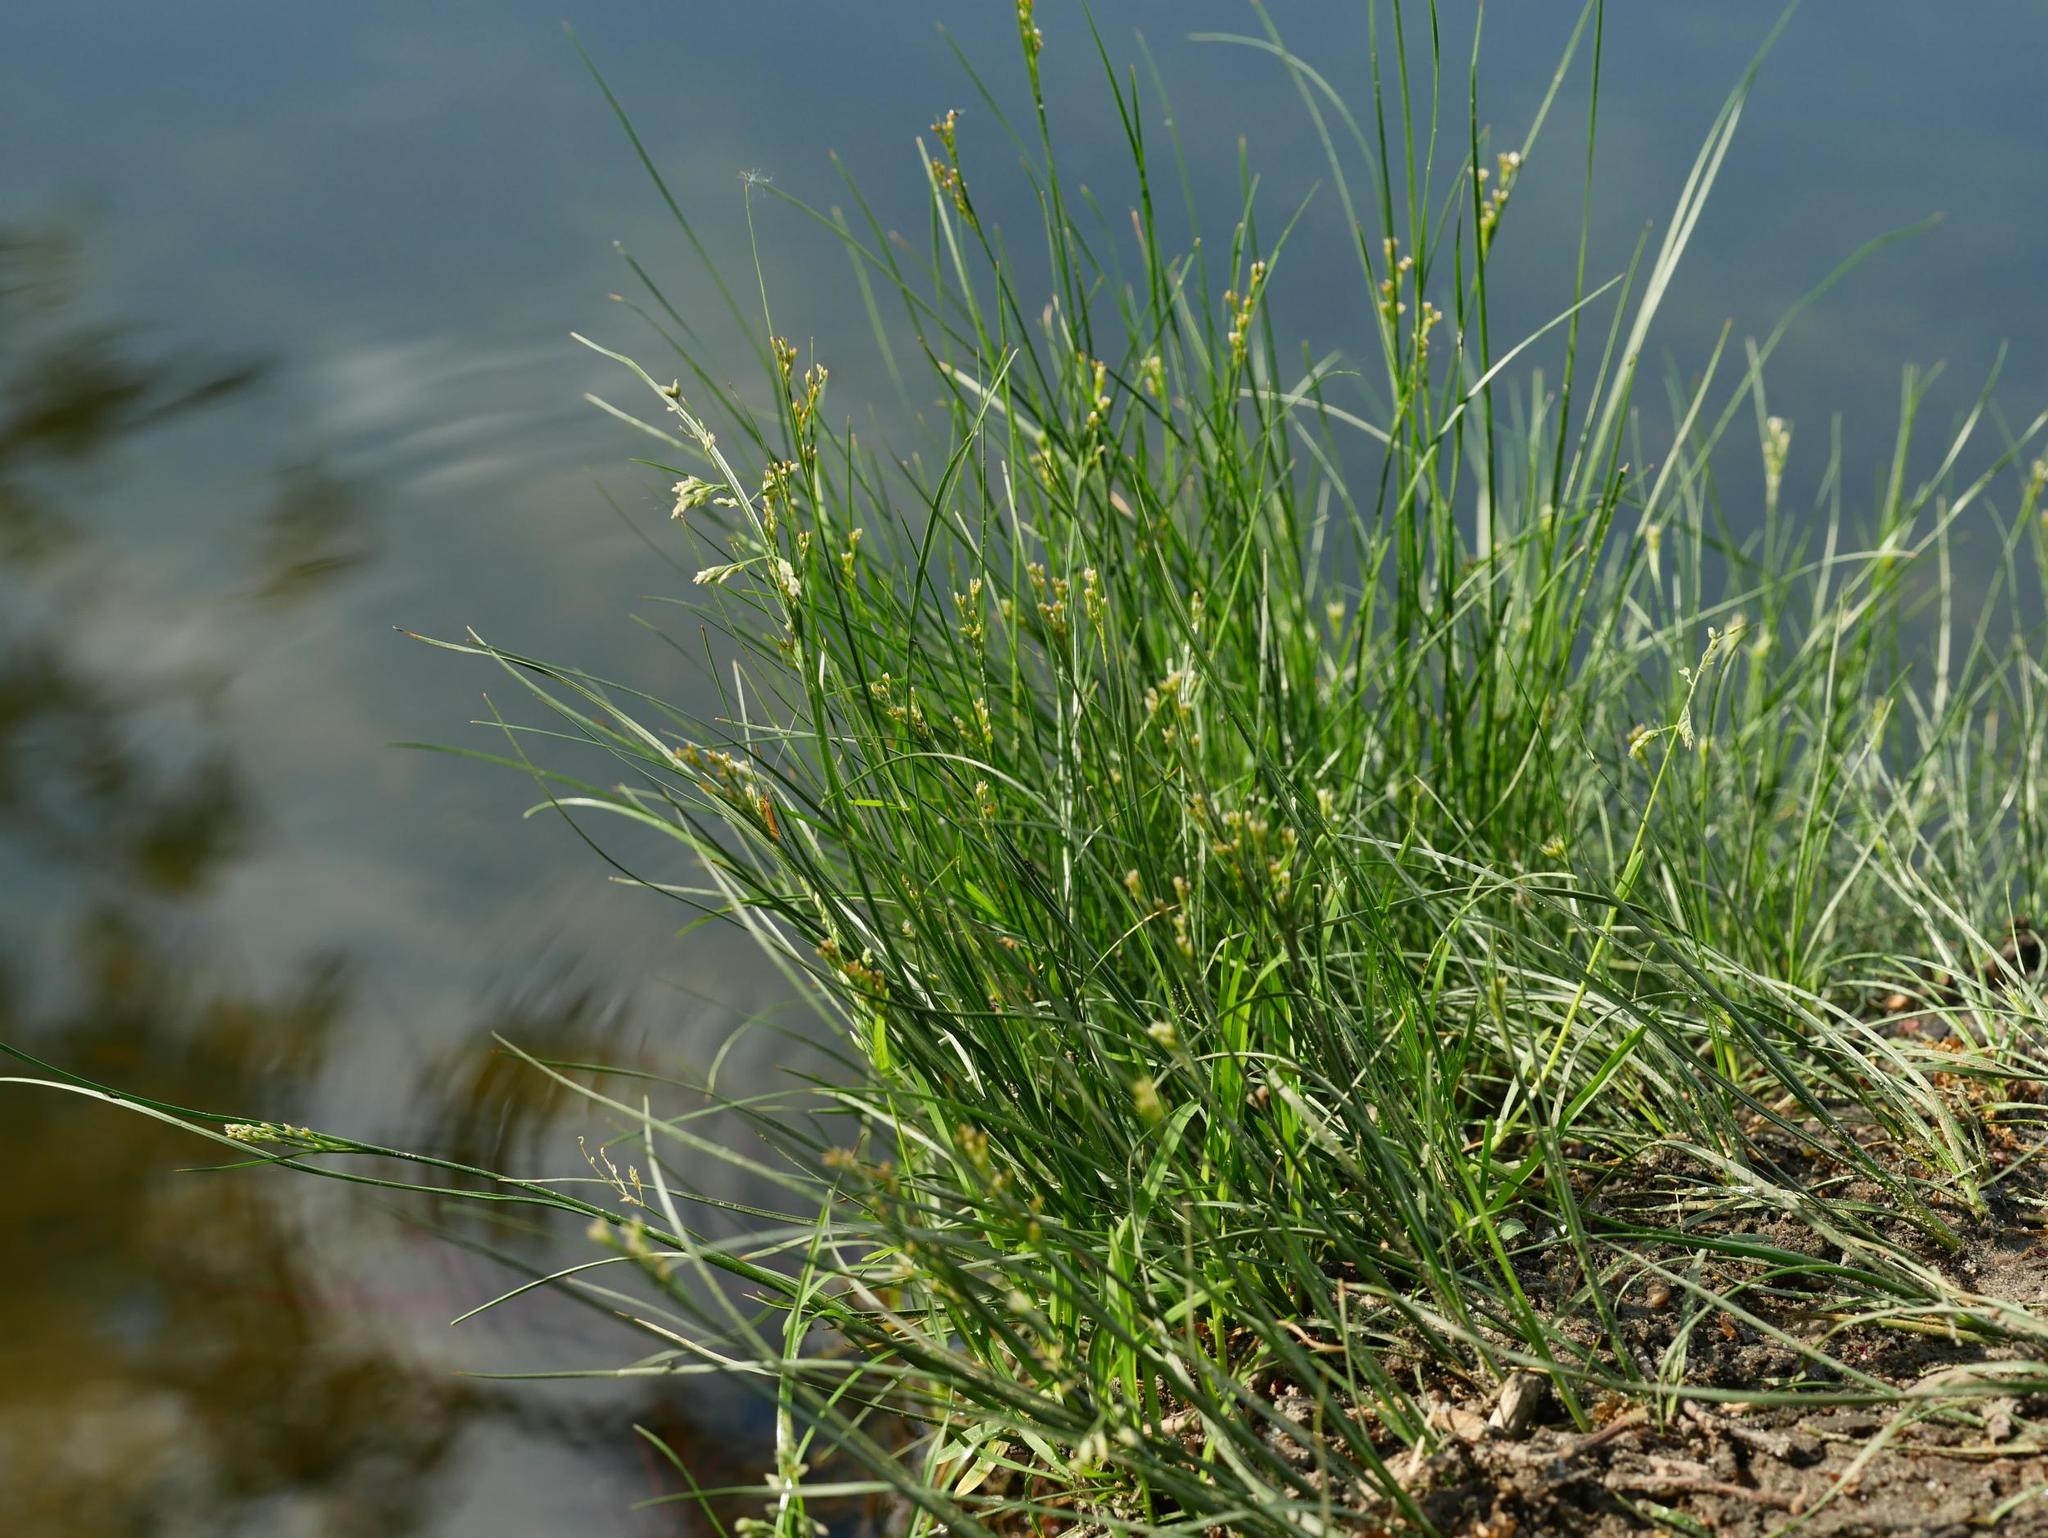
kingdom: Plantae
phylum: Tracheophyta
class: Liliopsida
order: Poales
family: Juncaceae
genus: Juncus
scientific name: Juncus compressus
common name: Round-fruited rush
